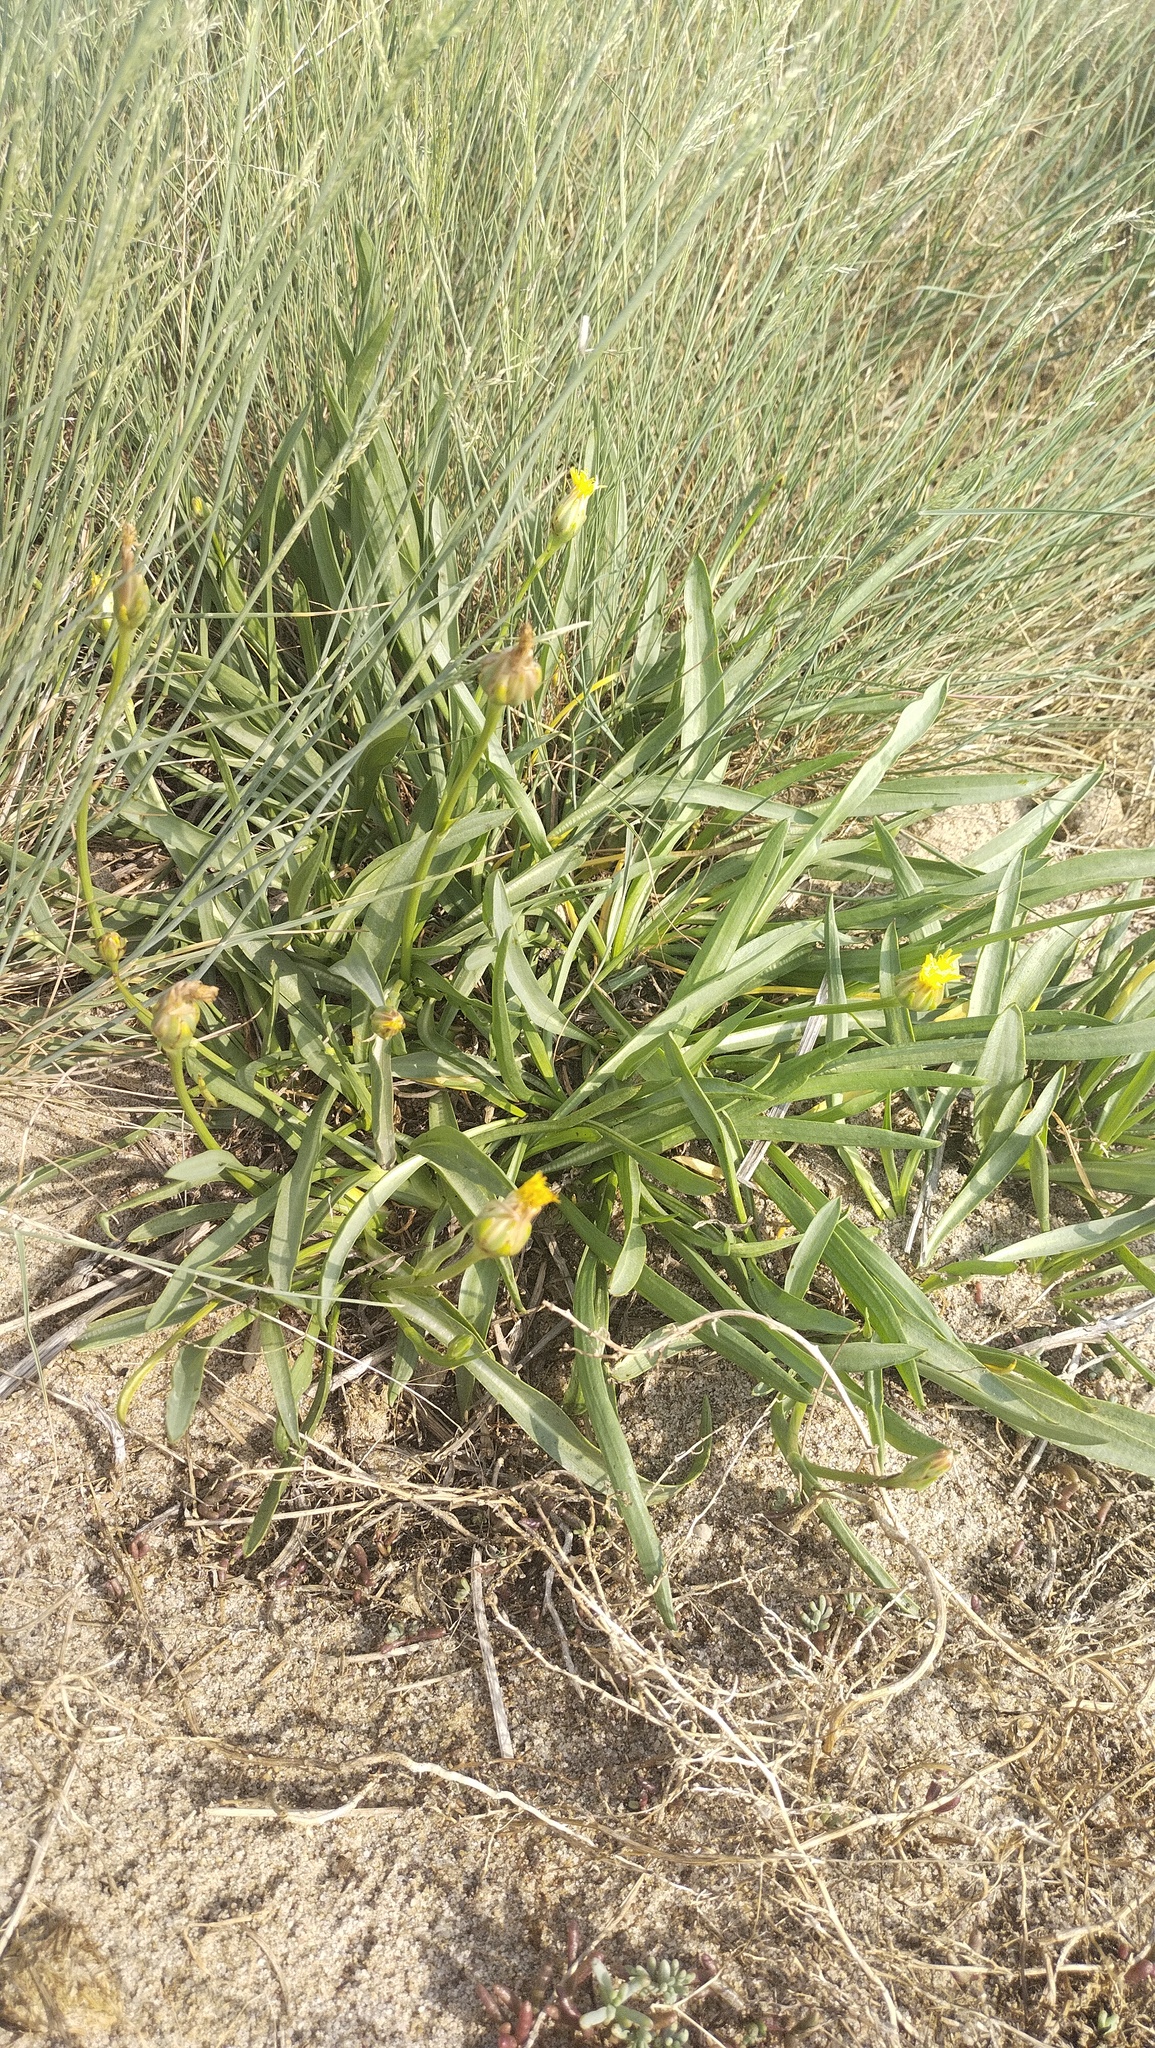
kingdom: Plantae
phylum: Tracheophyta
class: Magnoliopsida
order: Asterales
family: Asteraceae
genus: Scorzonera
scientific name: Scorzonera parviflora
